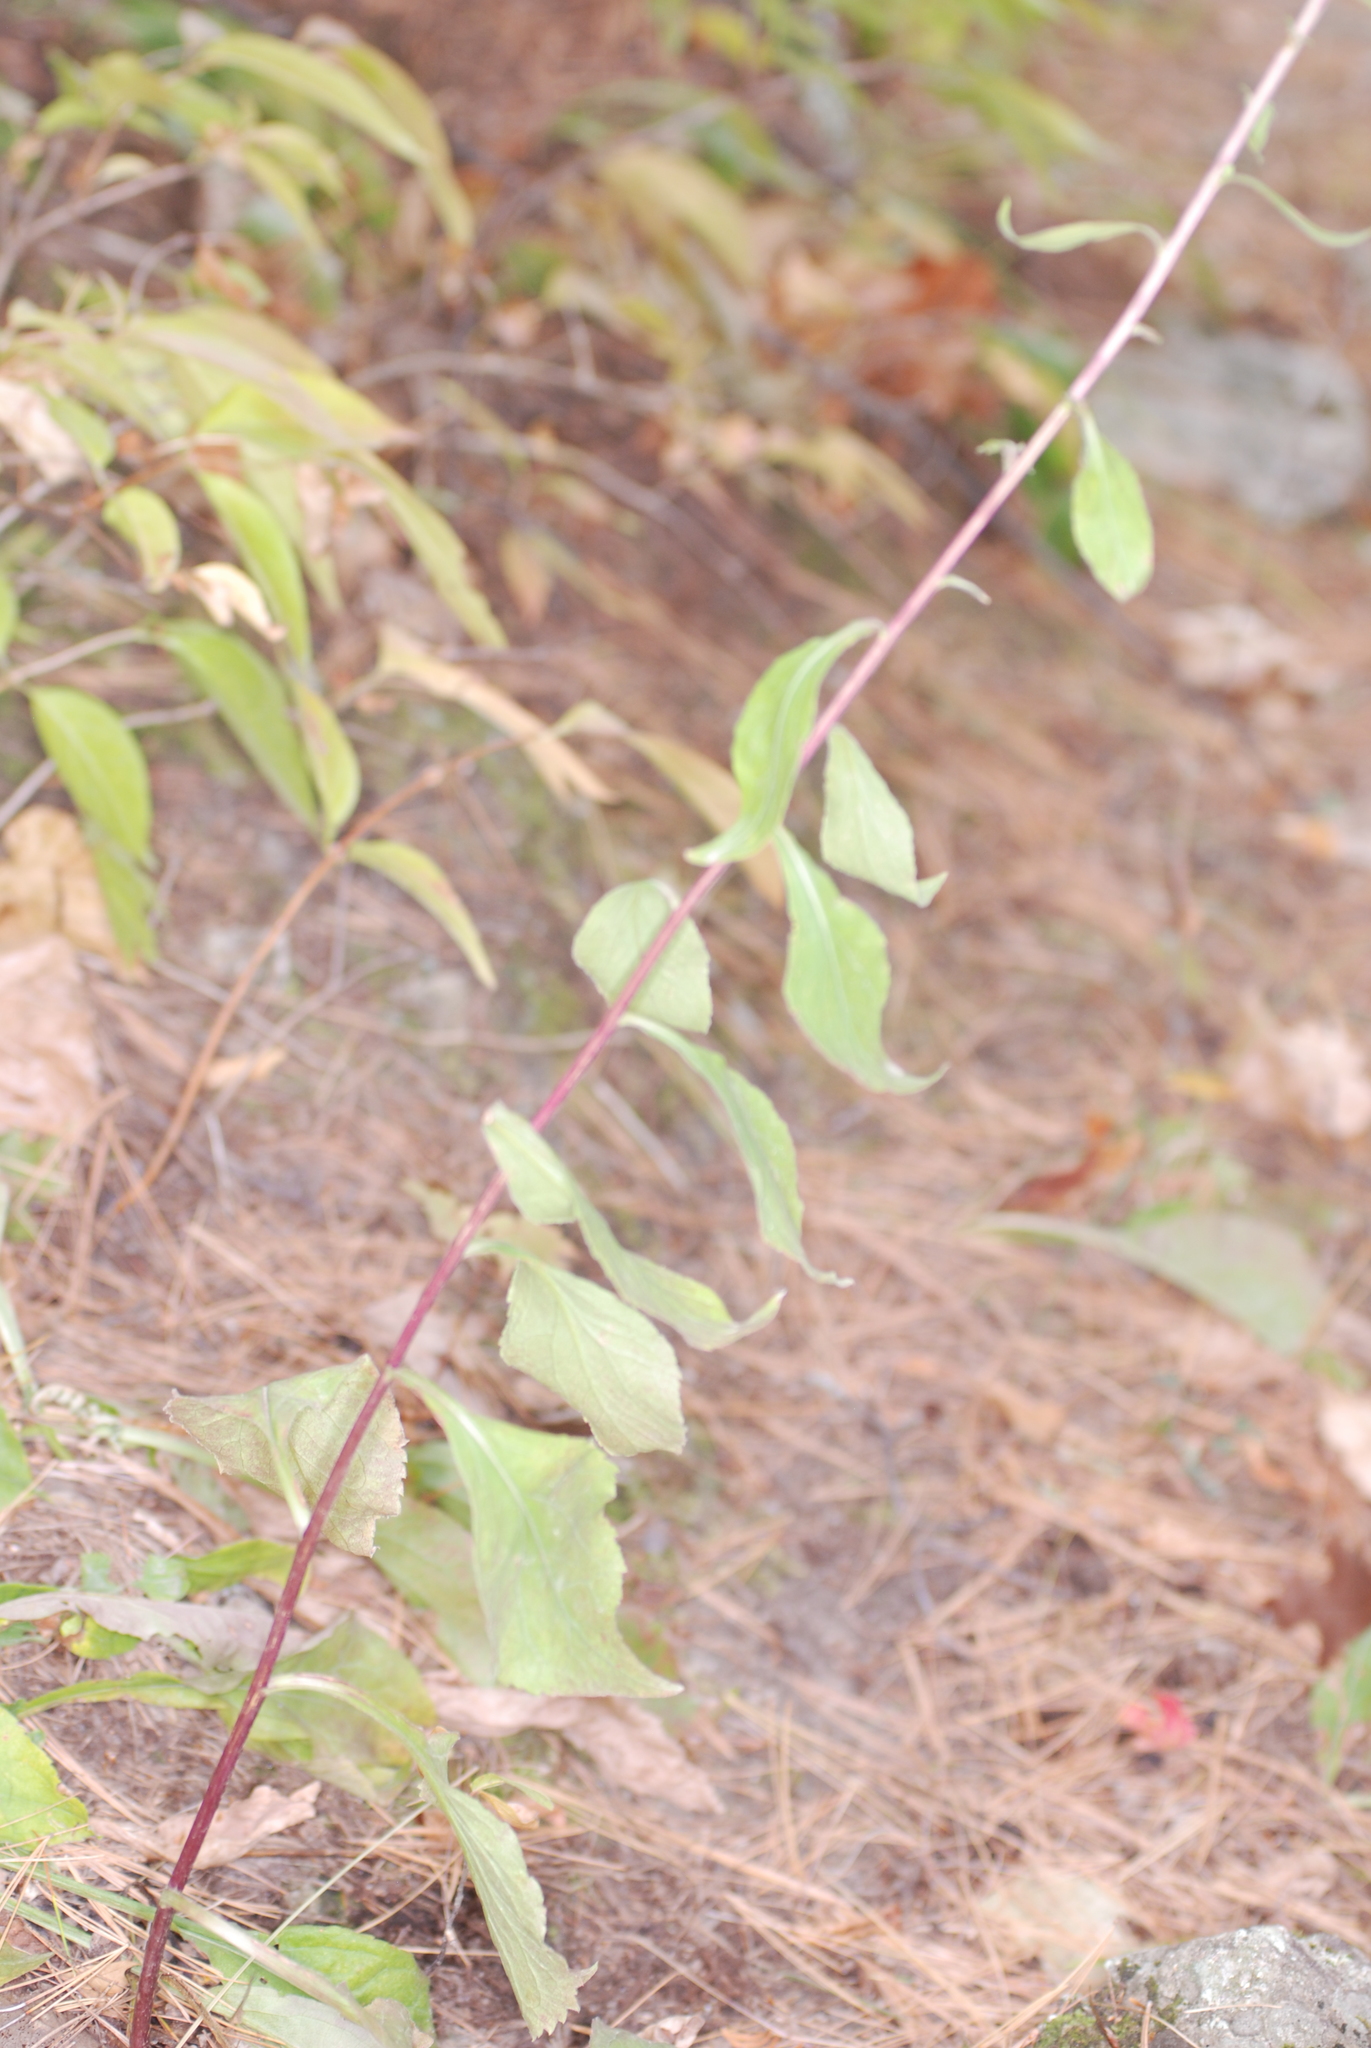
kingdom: Plantae
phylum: Tracheophyta
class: Magnoliopsida
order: Asterales
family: Asteraceae
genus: Solidago
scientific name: Solidago squarrosa
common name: Stout goldenrod
